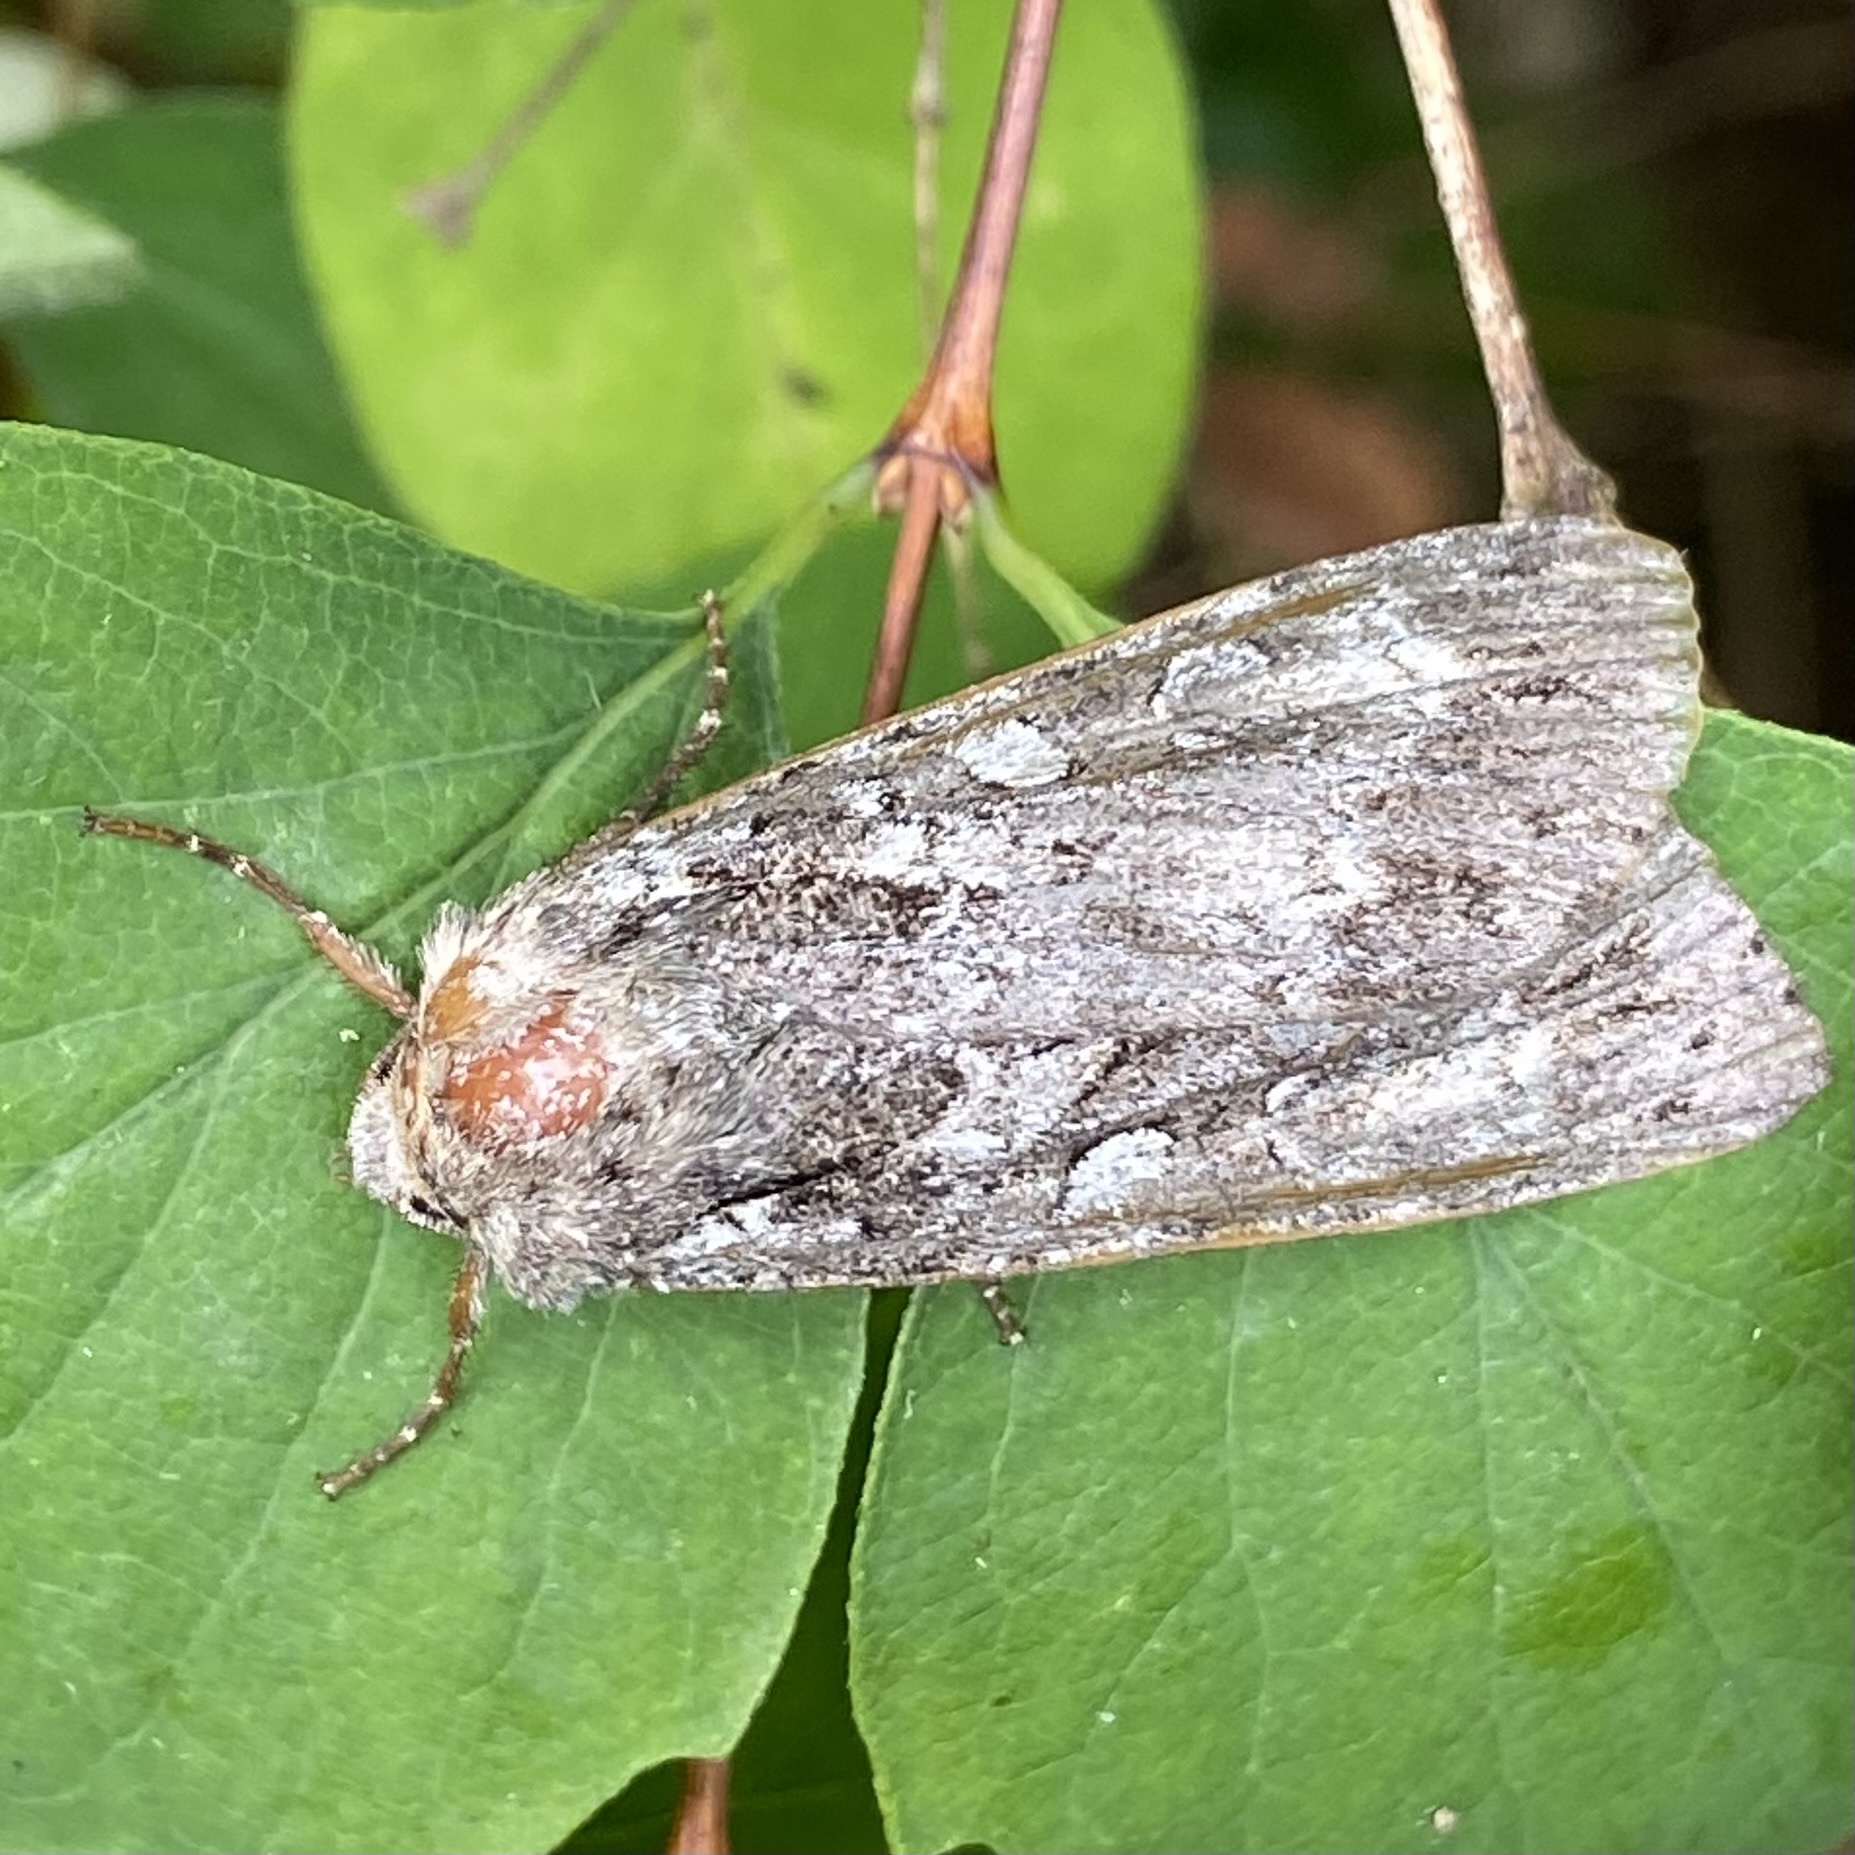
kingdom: Animalia
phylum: Arthropoda
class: Insecta
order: Lepidoptera
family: Noctuidae
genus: Eurois
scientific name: Eurois occulta
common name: Great brocade
